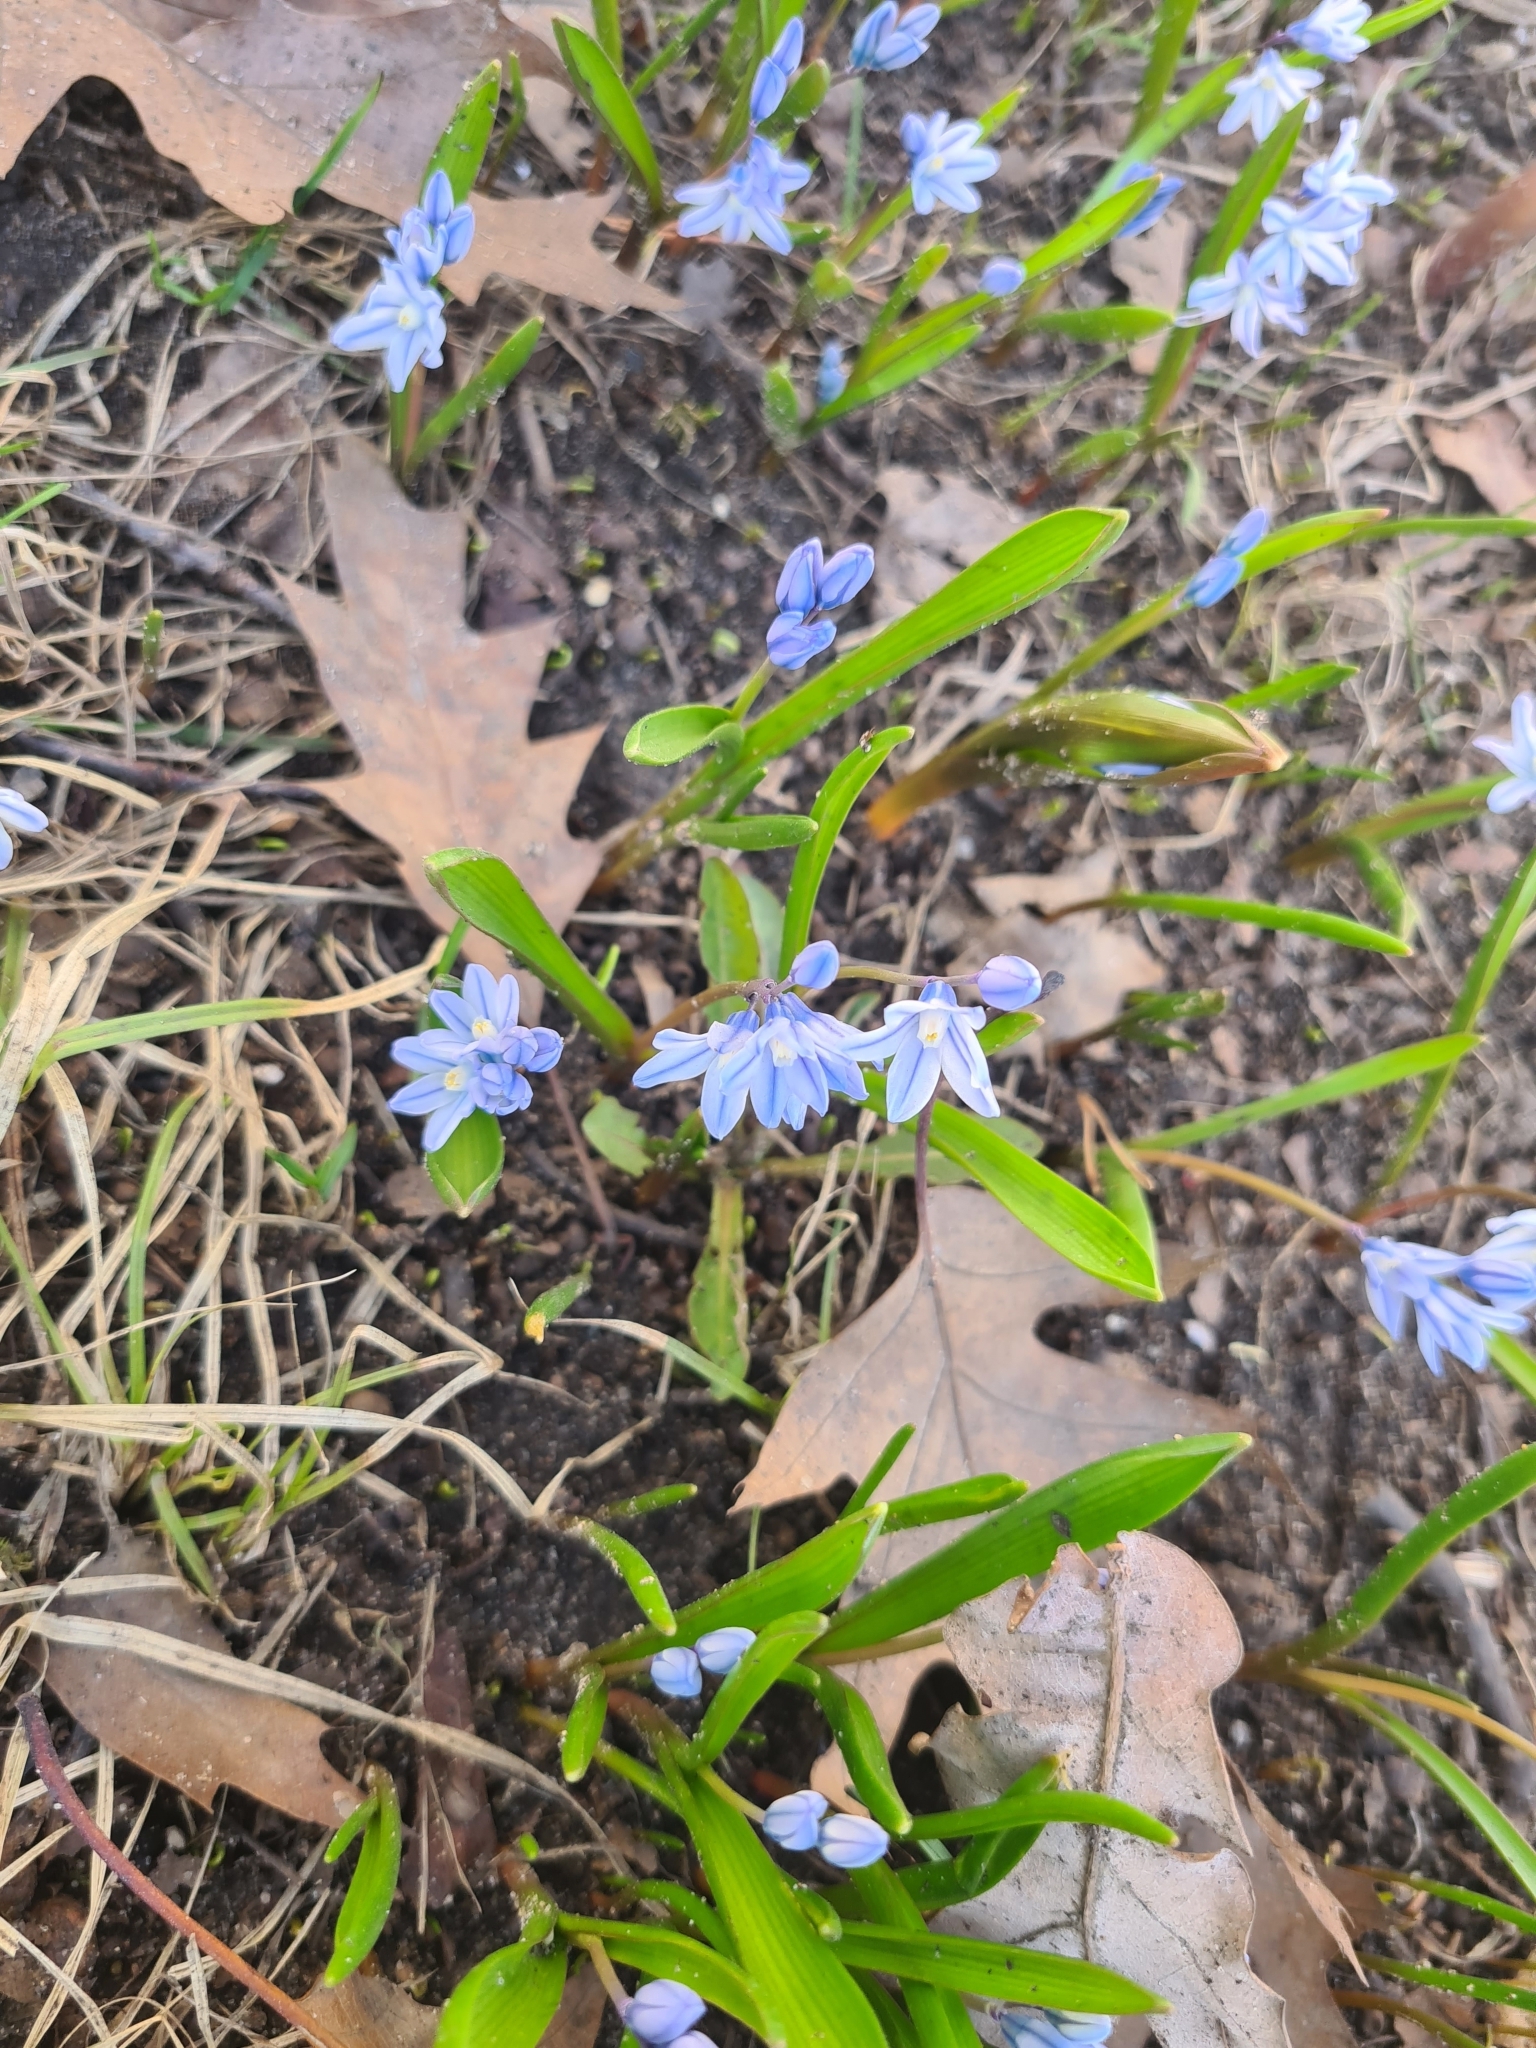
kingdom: Plantae
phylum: Tracheophyta
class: Liliopsida
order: Asparagales
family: Asparagaceae
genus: Puschkinia
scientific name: Puschkinia scilloides
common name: Striped squill
